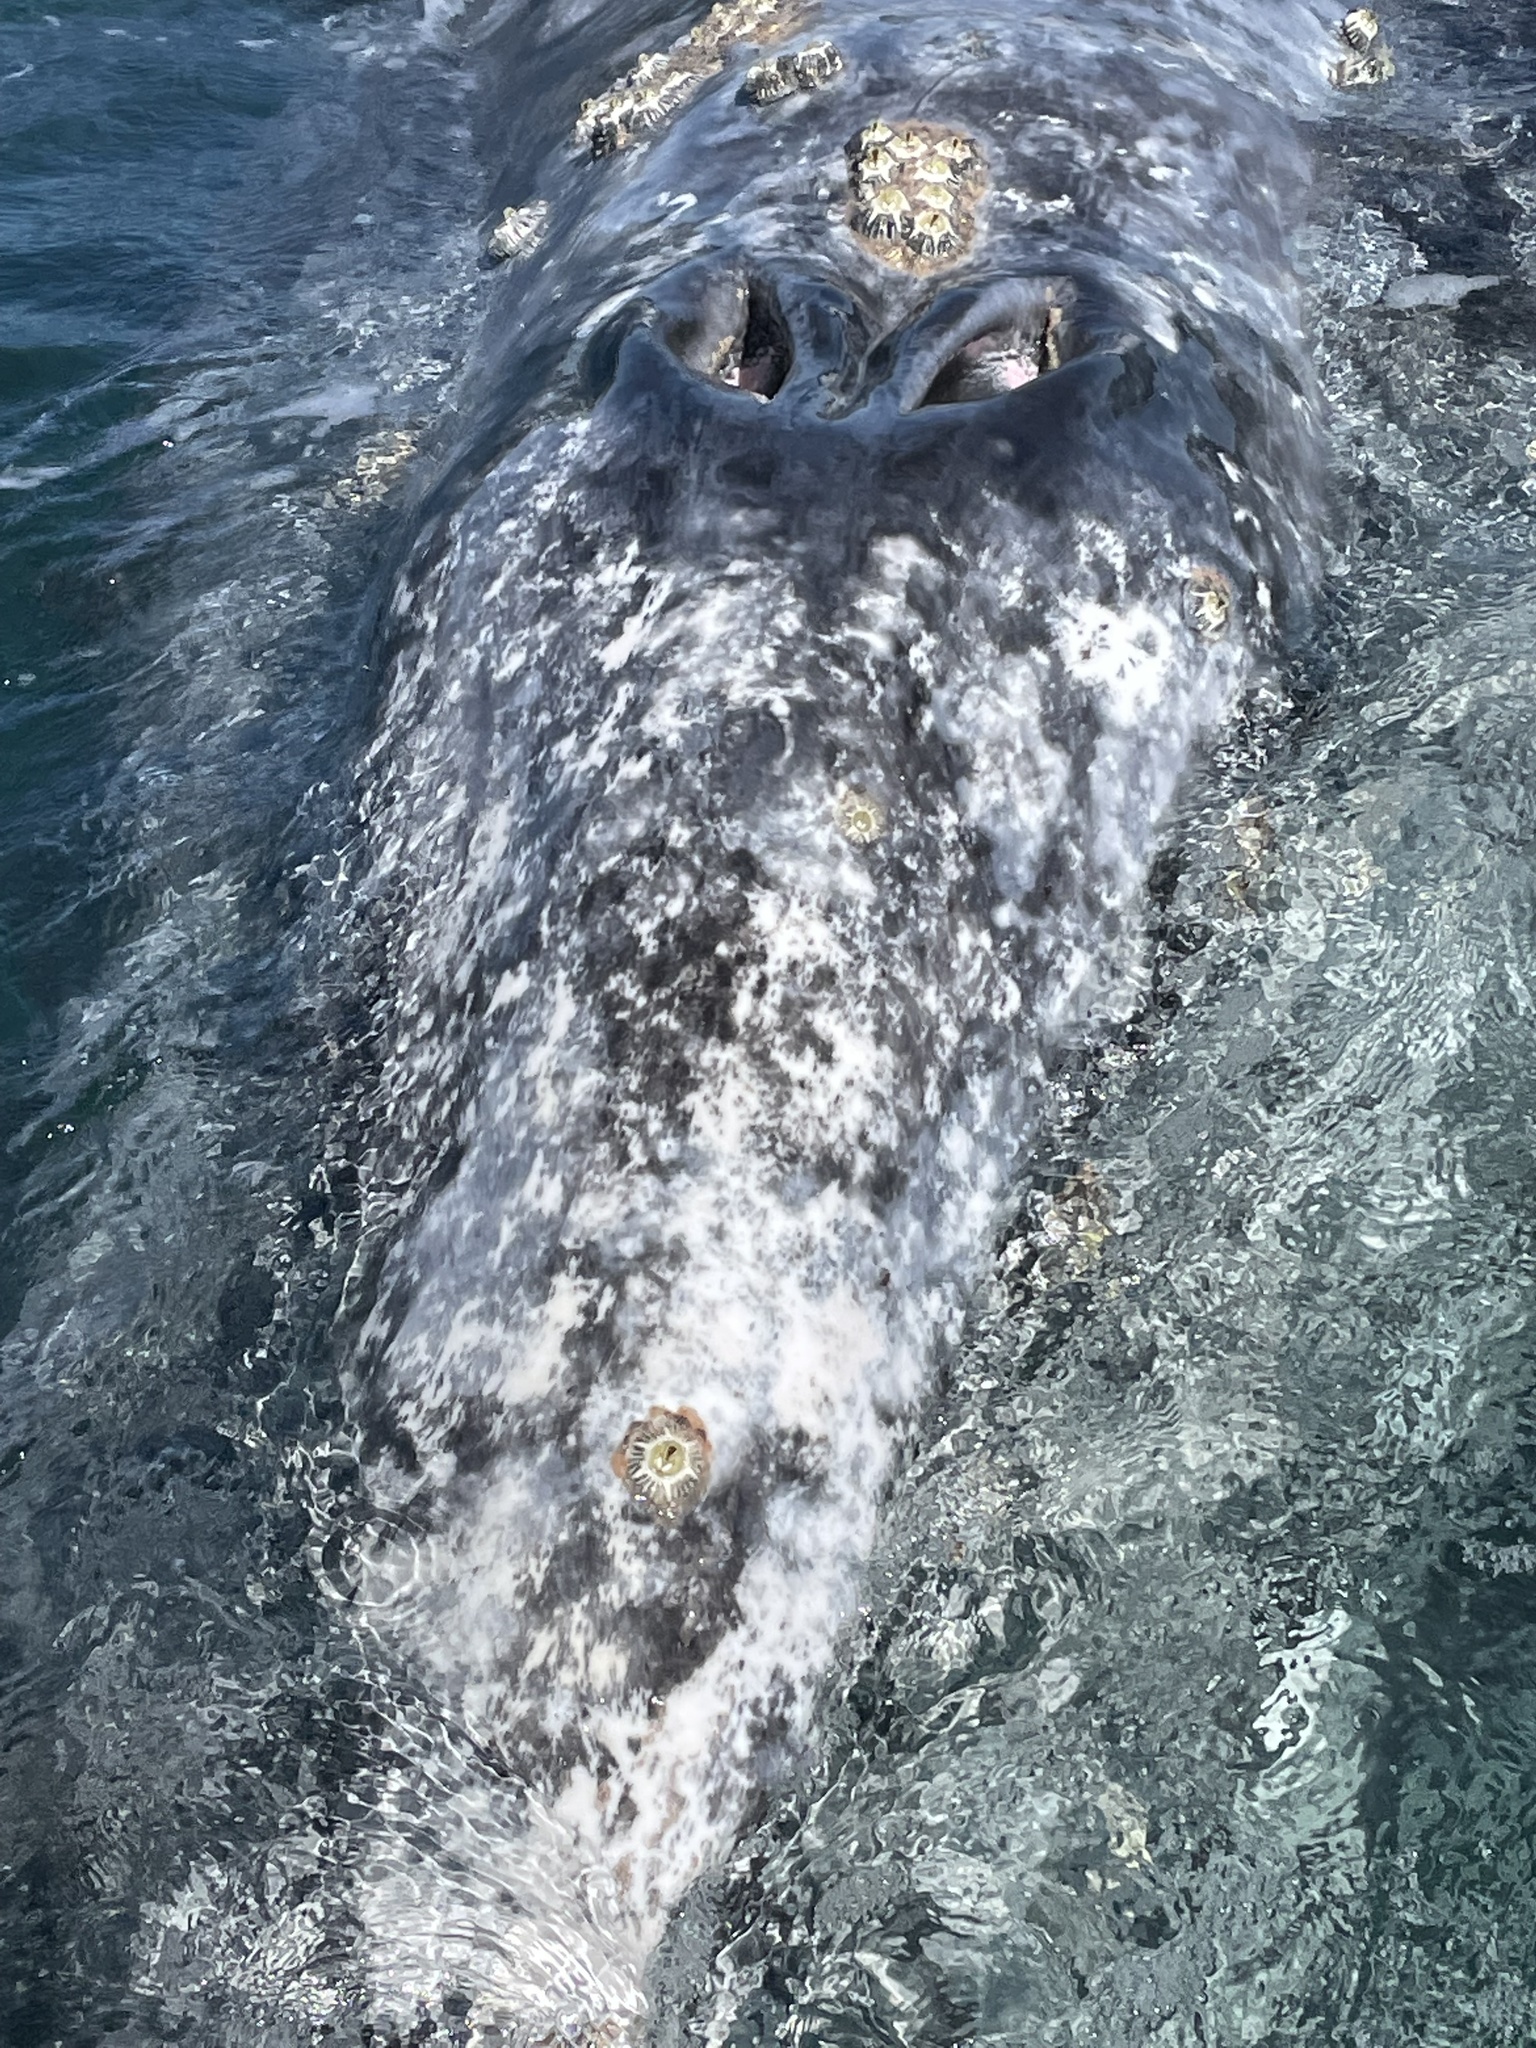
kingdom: Animalia
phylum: Chordata
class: Mammalia
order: Cetacea
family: Eschrichtiidae
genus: Eschrichtius
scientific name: Eschrichtius robustus
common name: Gray whale
